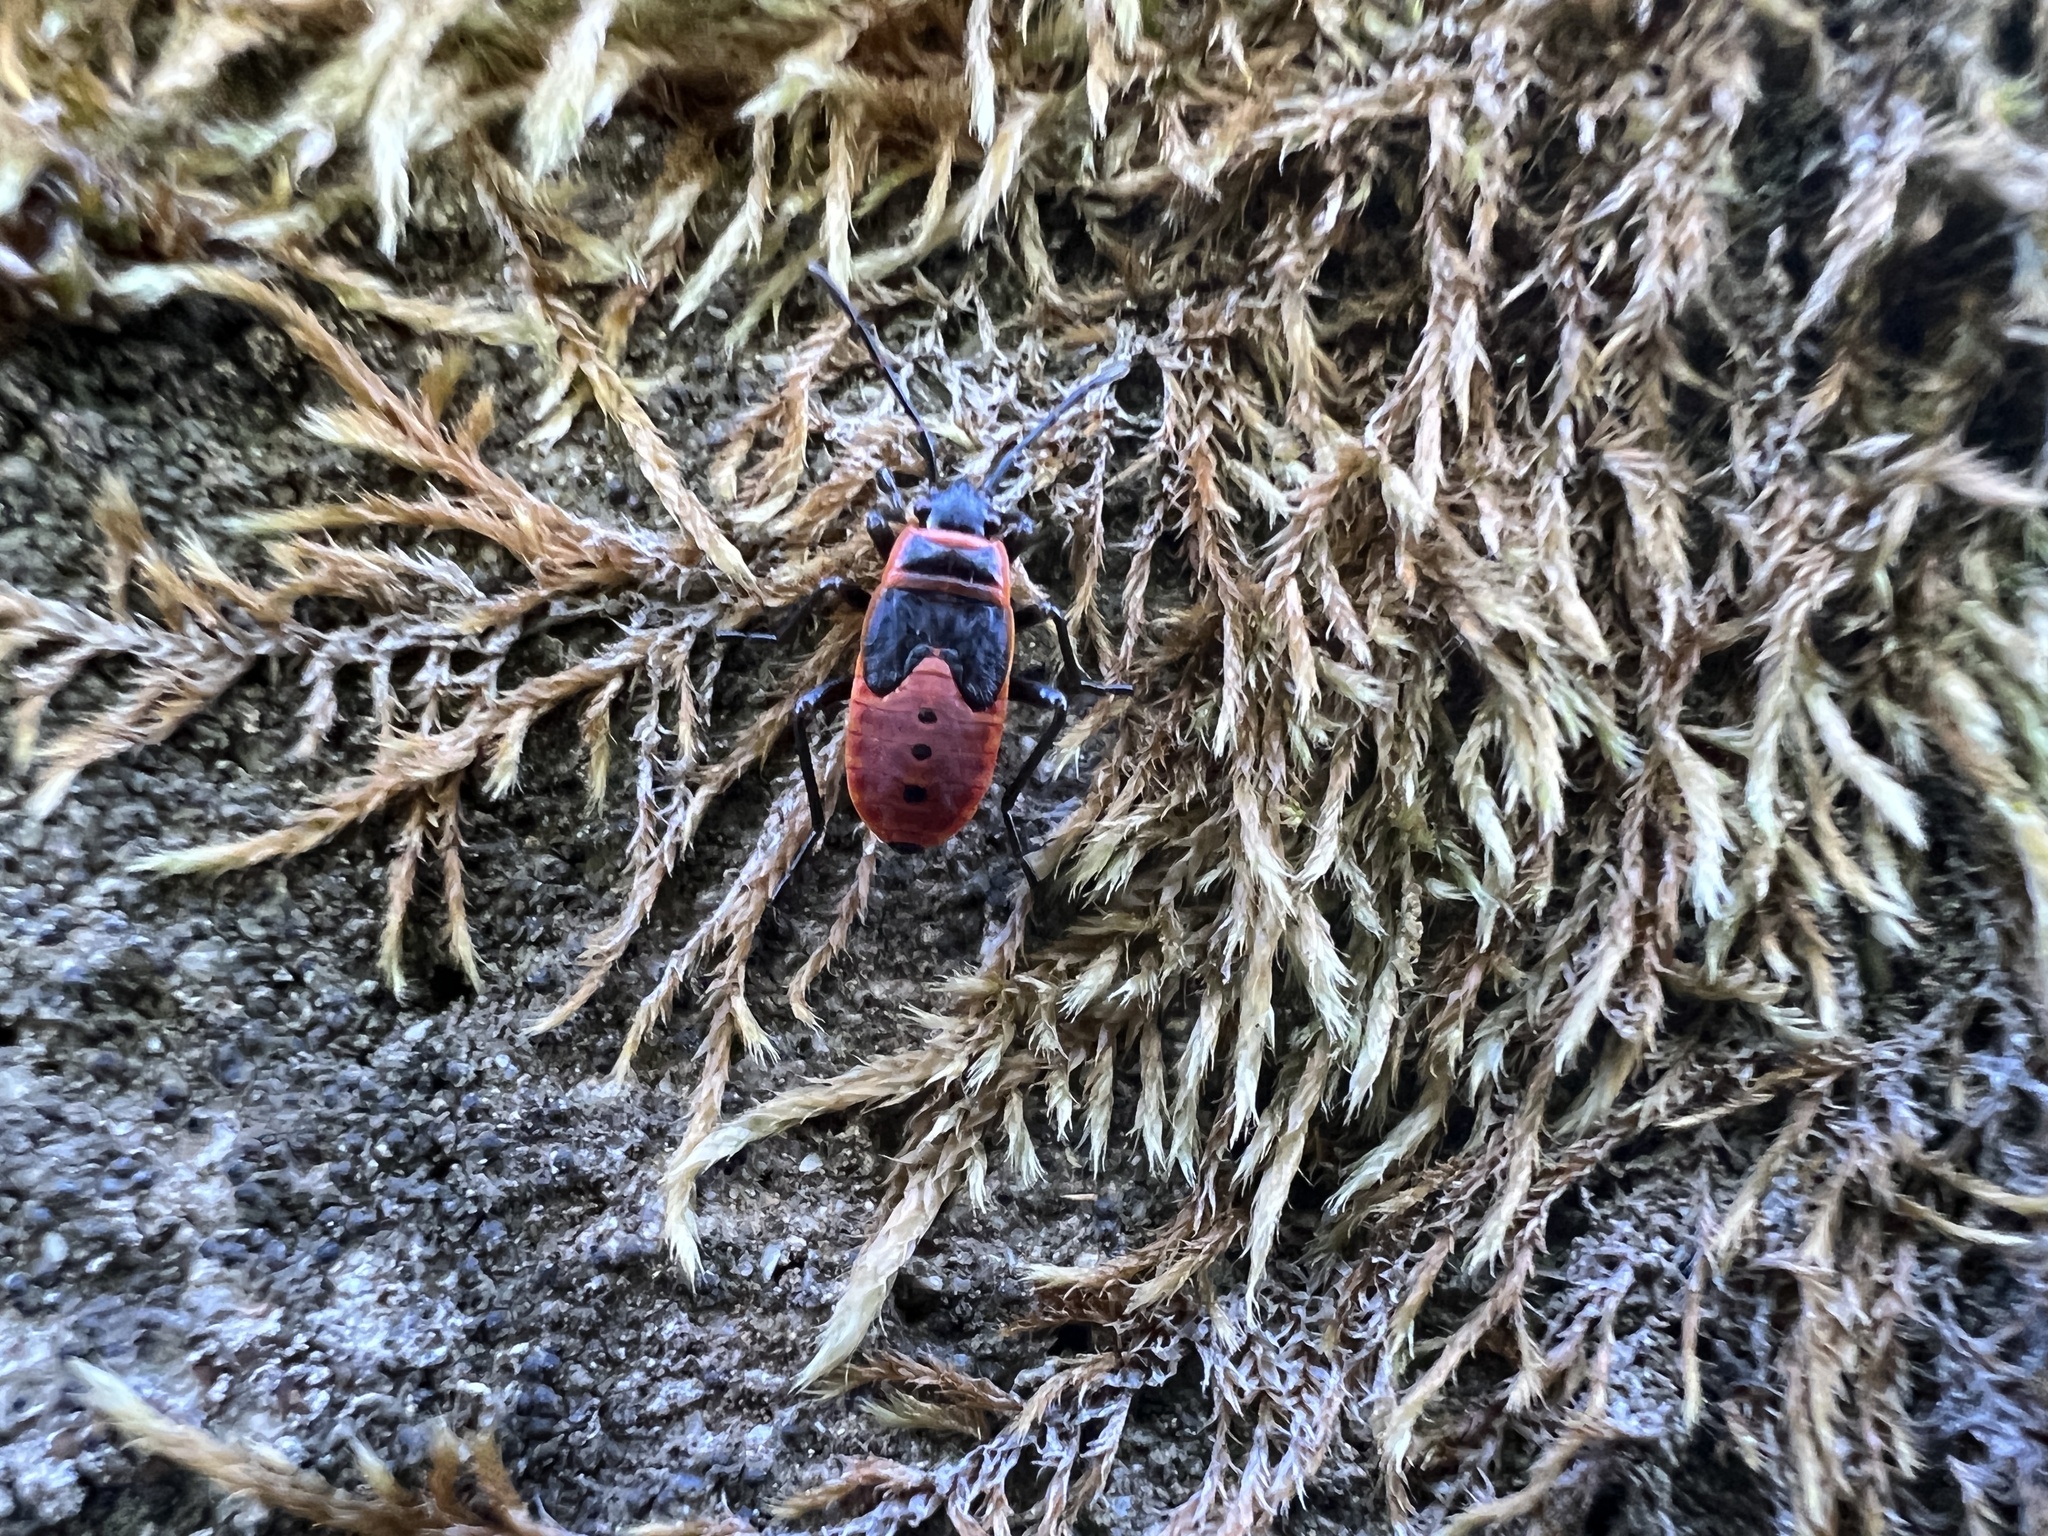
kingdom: Animalia
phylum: Arthropoda
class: Insecta
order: Hemiptera
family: Pyrrhocoridae
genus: Pyrrhocoris
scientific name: Pyrrhocoris apterus
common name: Firebug
